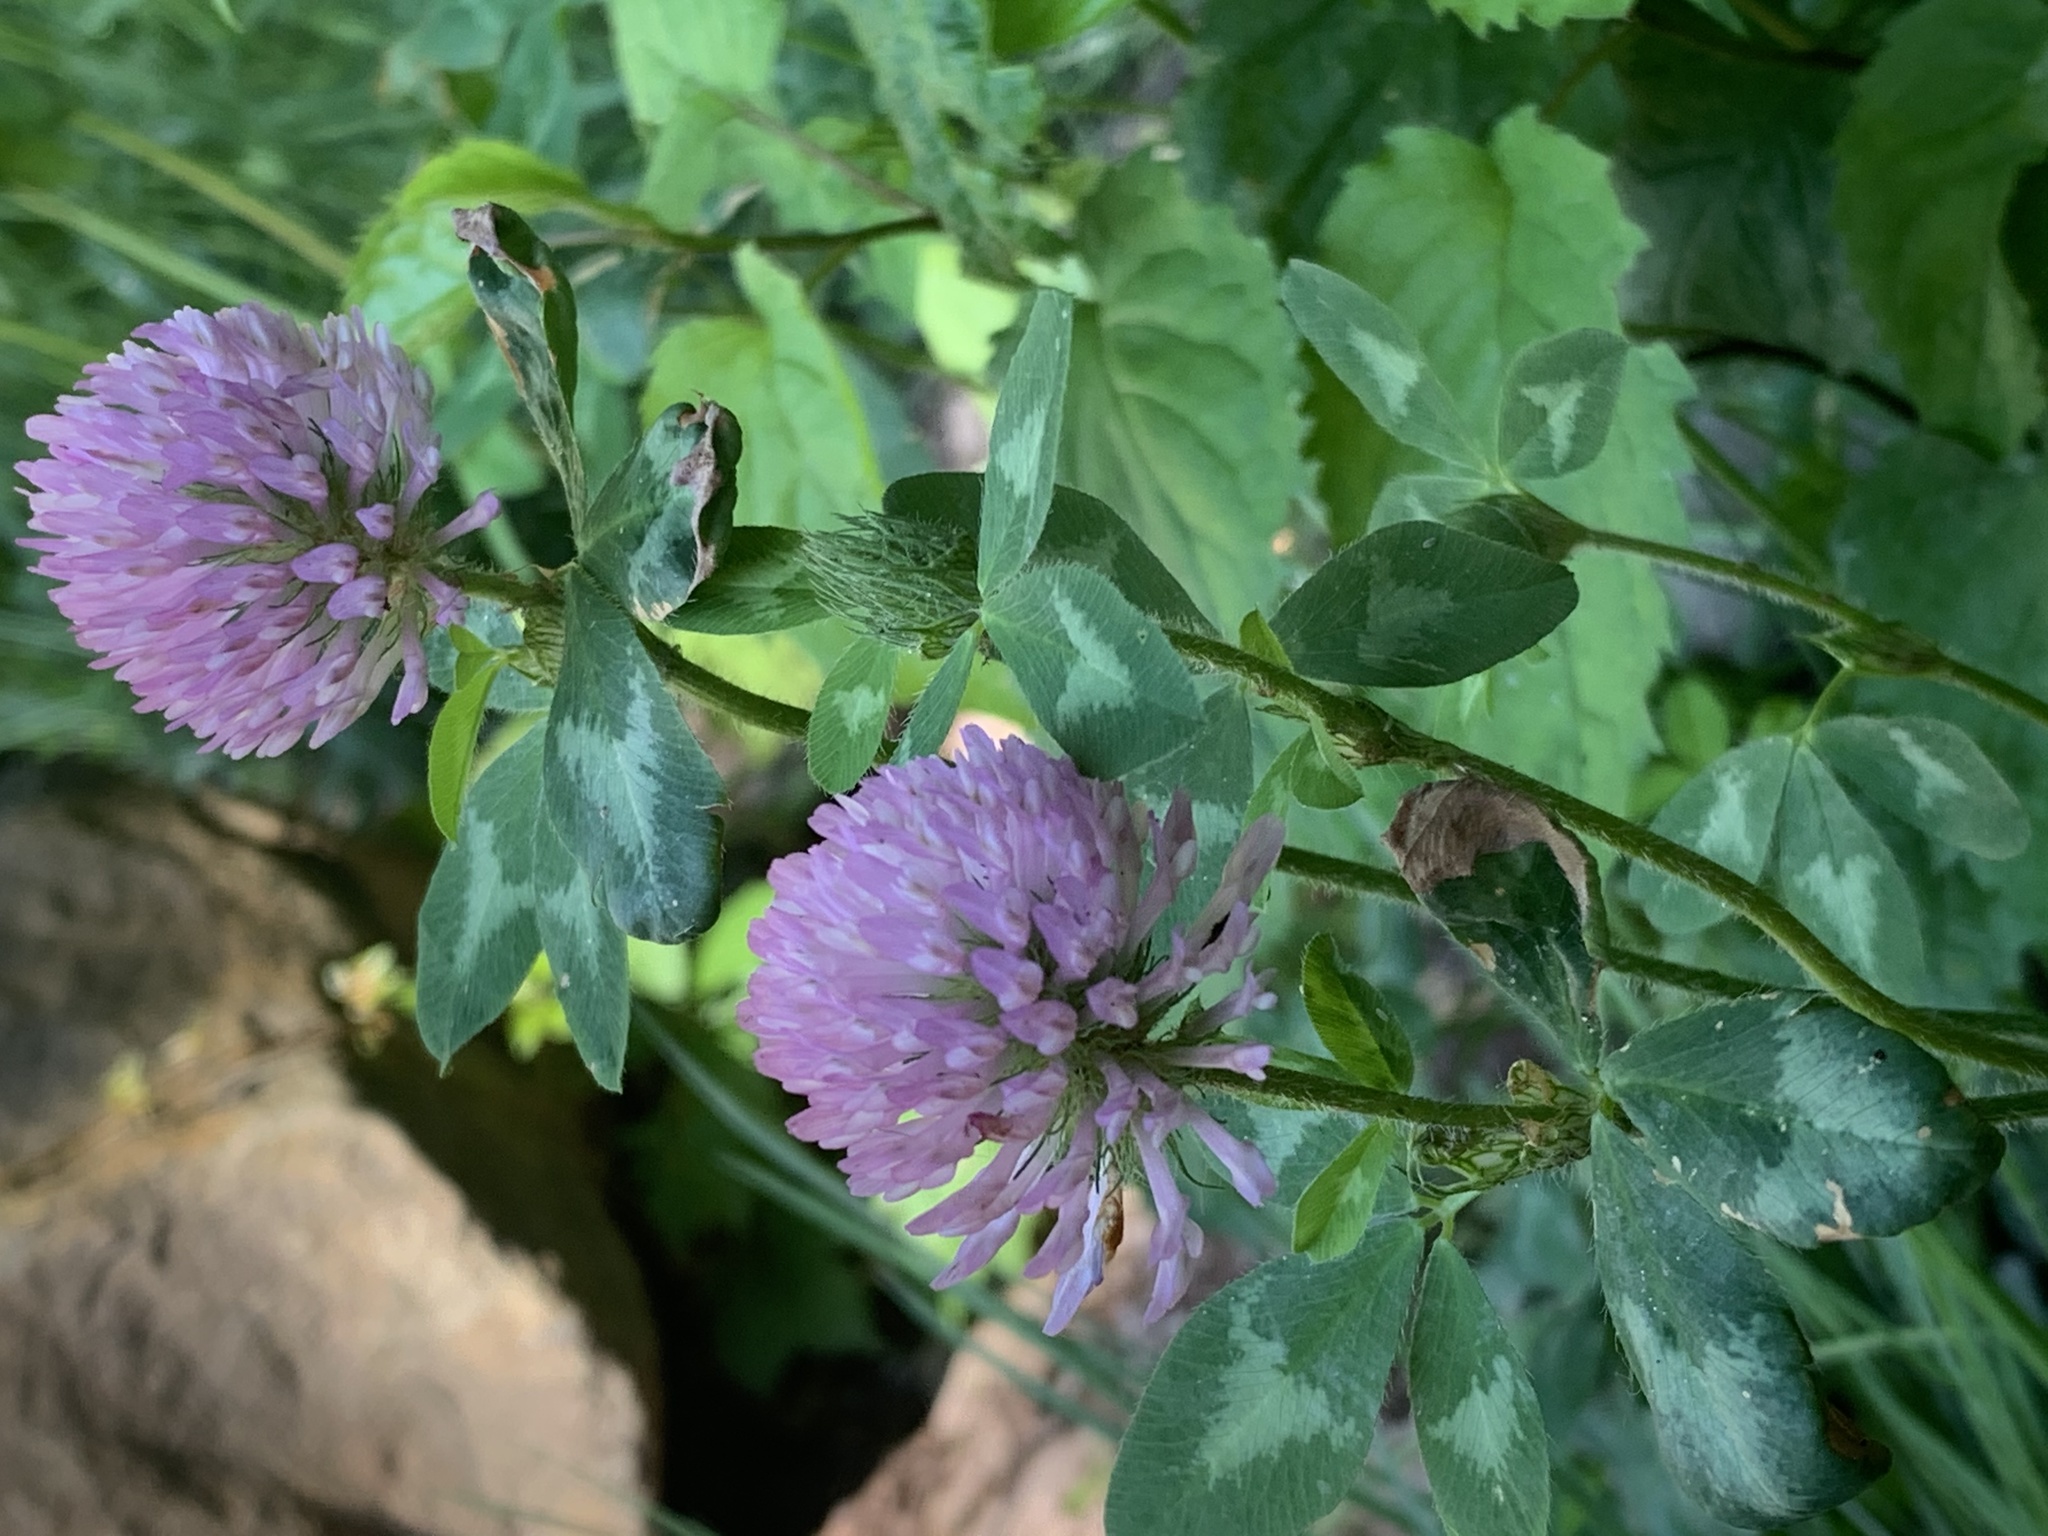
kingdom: Plantae
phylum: Tracheophyta
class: Magnoliopsida
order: Fabales
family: Fabaceae
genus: Trifolium
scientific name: Trifolium pratense
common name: Red clover
